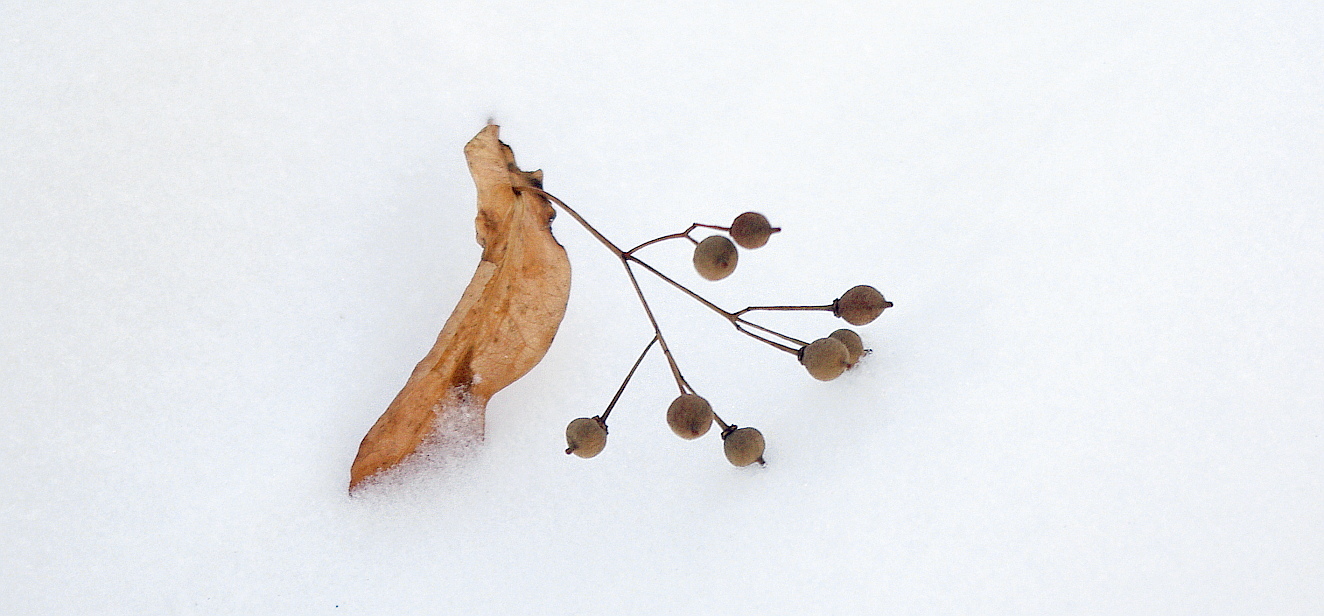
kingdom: Plantae
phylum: Tracheophyta
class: Magnoliopsida
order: Malvales
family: Malvaceae
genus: Tilia
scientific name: Tilia cordata
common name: Small-leaved lime
